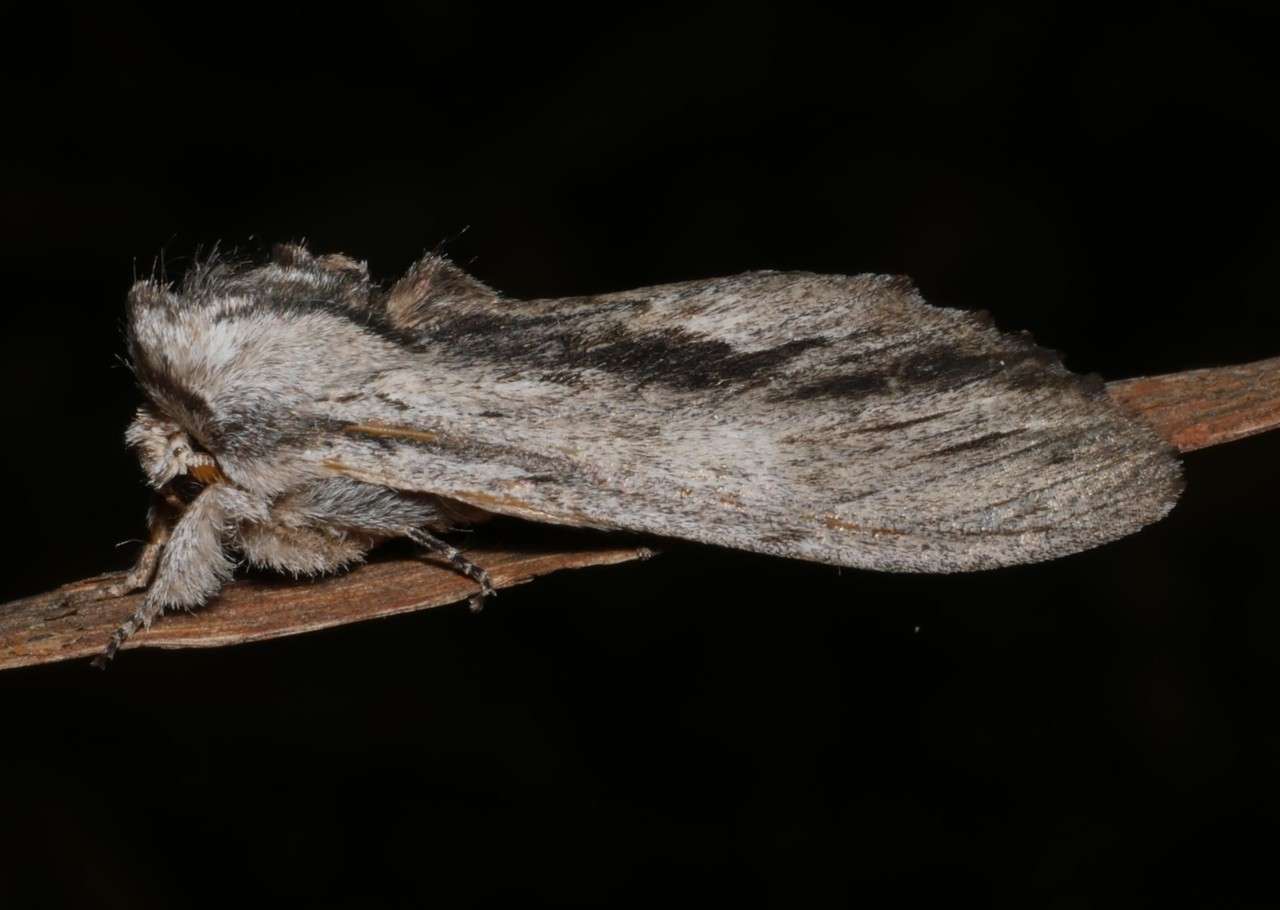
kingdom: Animalia
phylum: Arthropoda
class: Insecta
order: Lepidoptera
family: Notodontidae
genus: Destolmia
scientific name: Destolmia lineata
